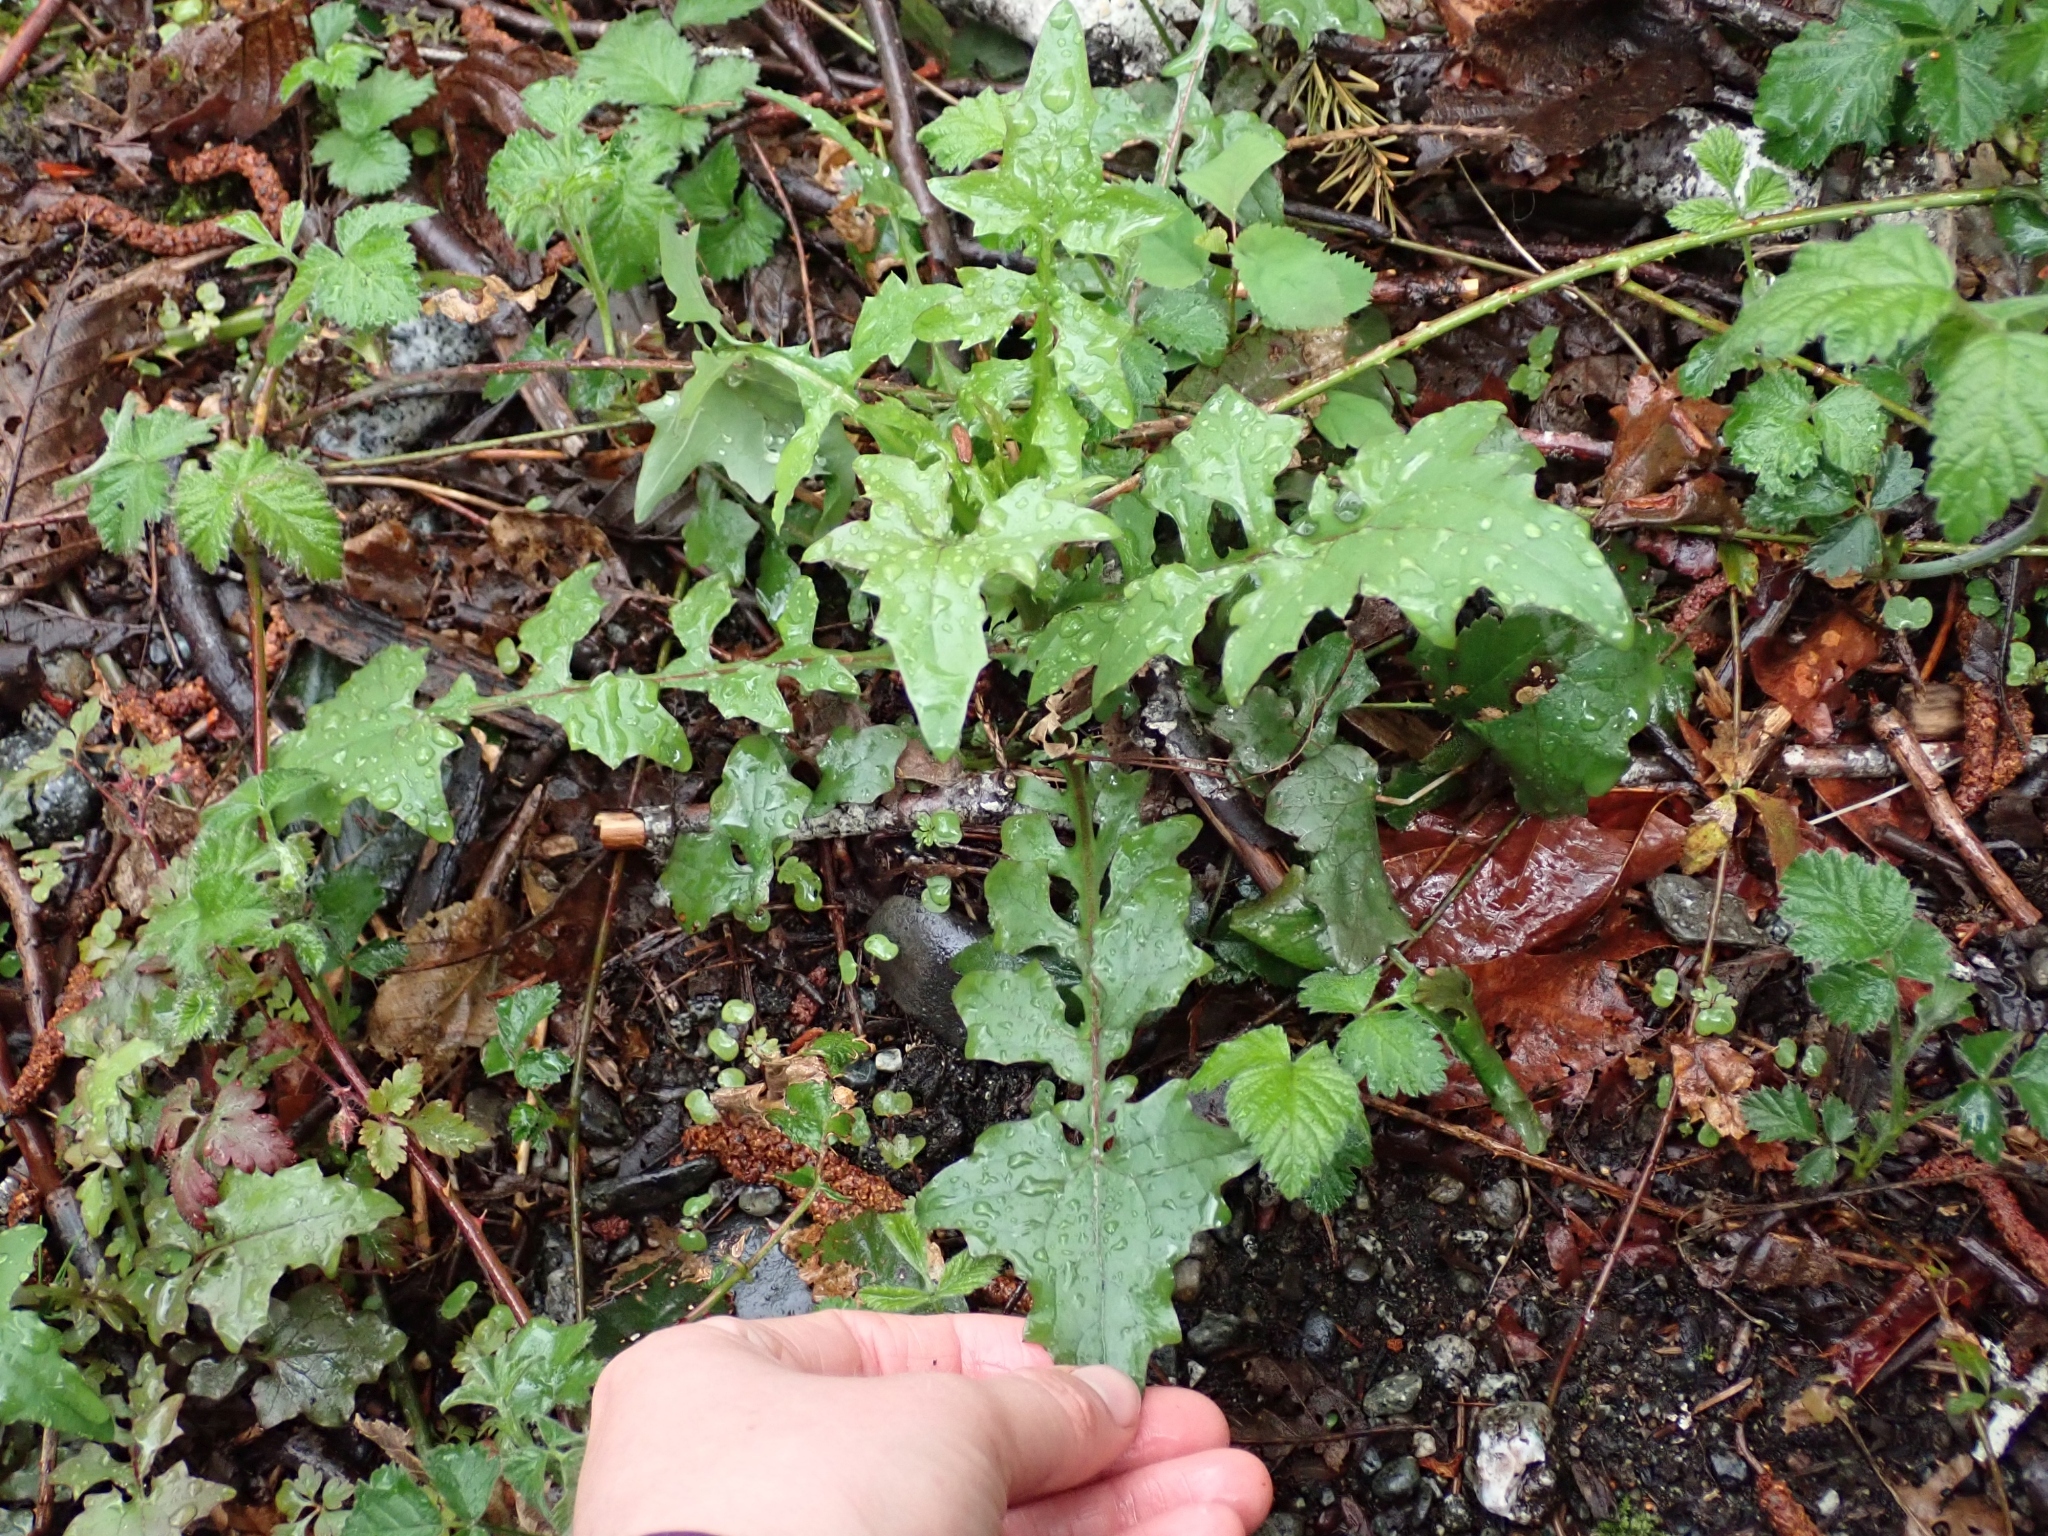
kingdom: Plantae
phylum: Tracheophyta
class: Magnoliopsida
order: Asterales
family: Asteraceae
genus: Mycelis
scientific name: Mycelis muralis
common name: Wall lettuce
